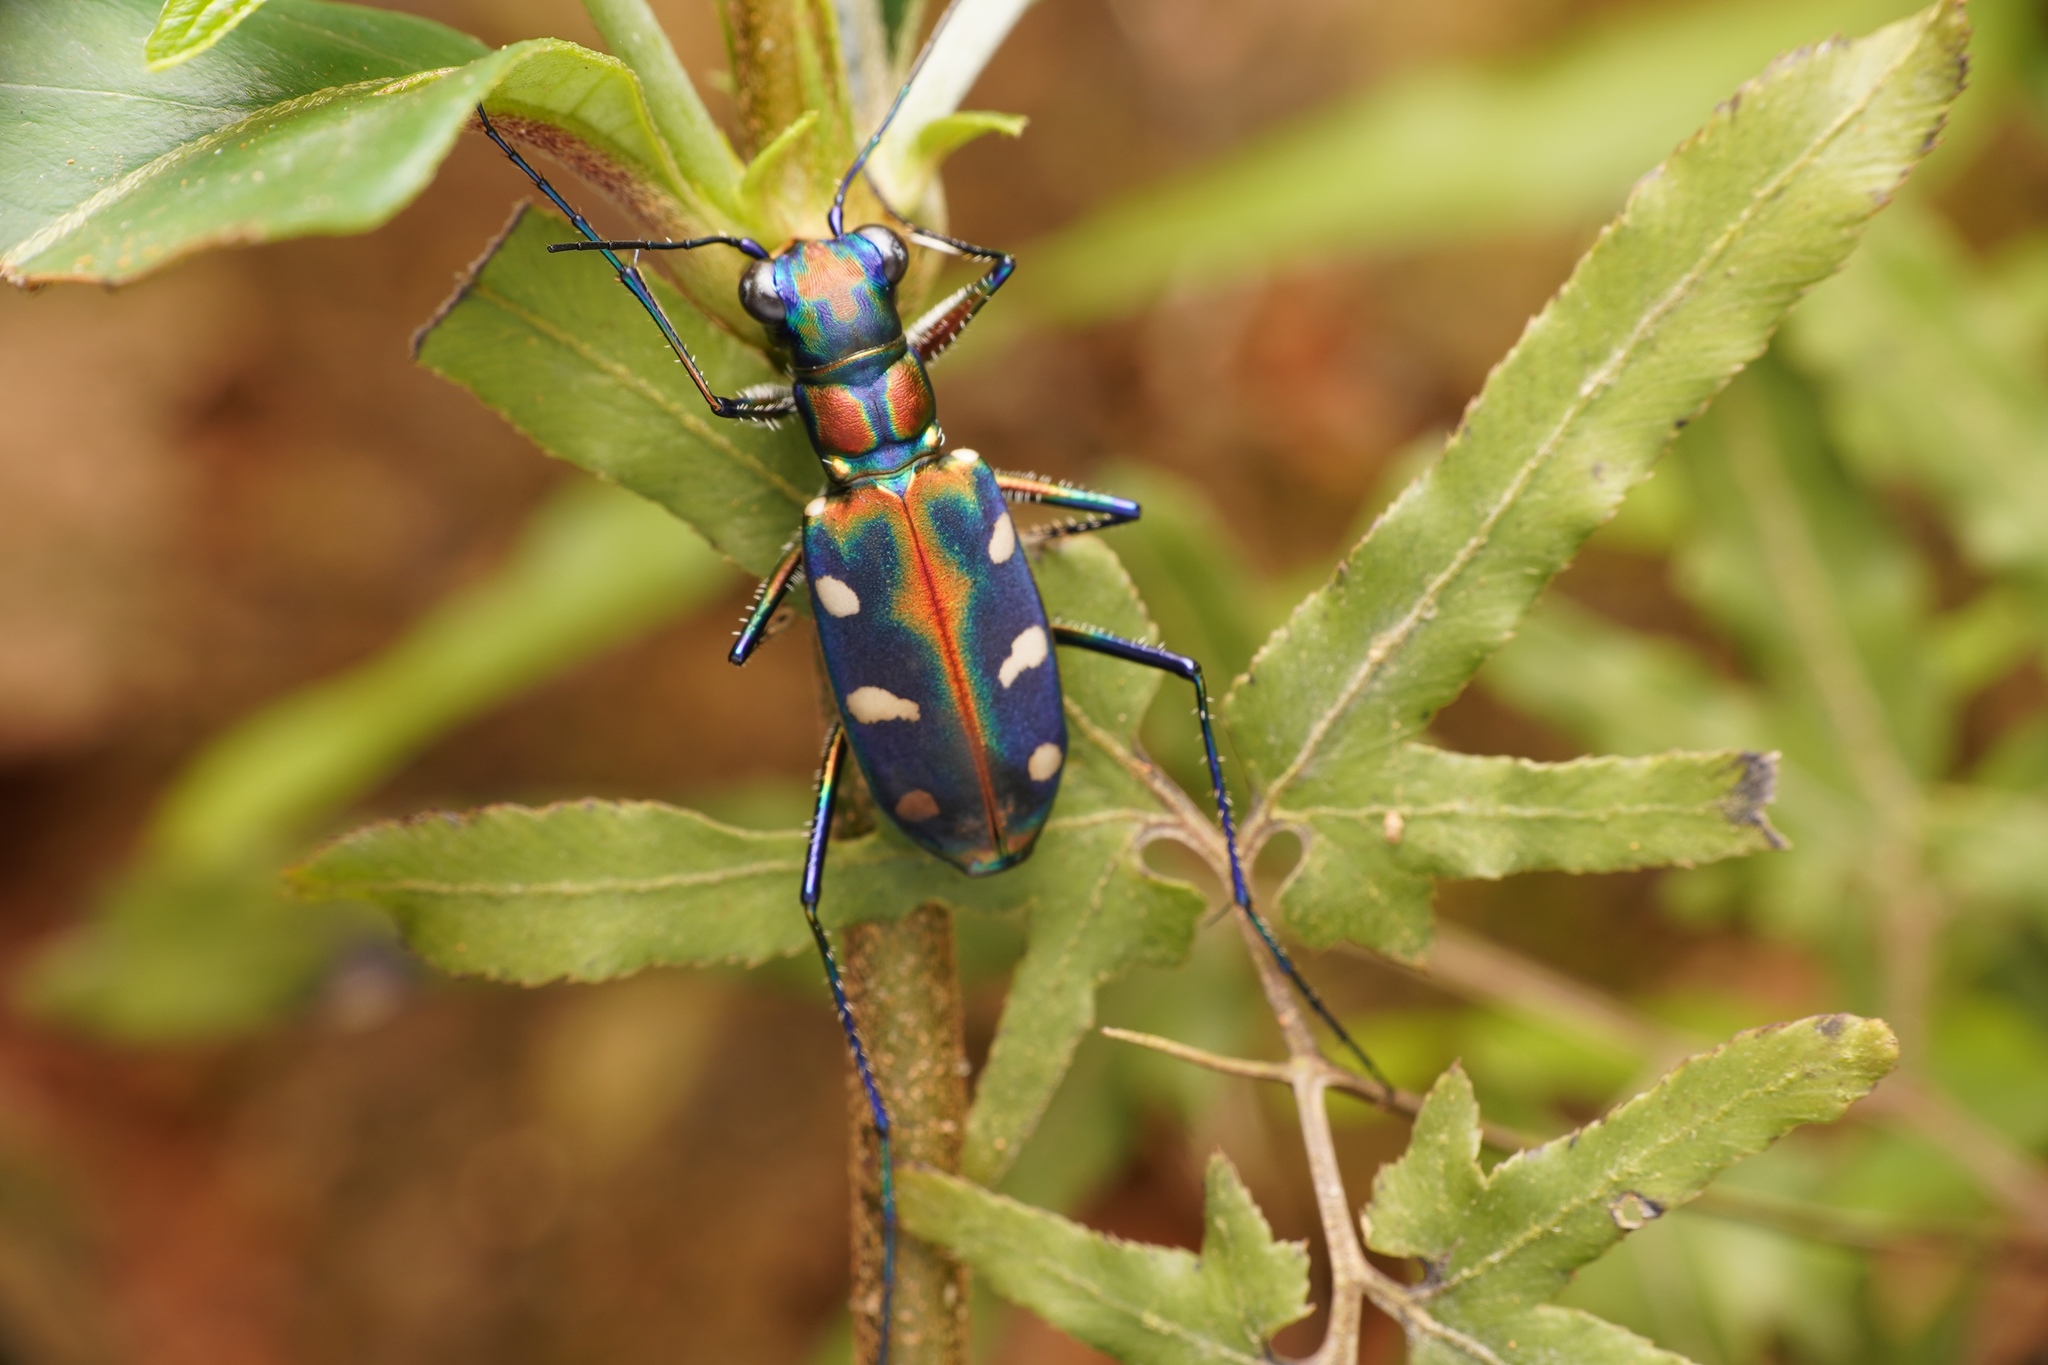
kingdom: Animalia
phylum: Arthropoda
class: Insecta
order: Coleoptera
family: Carabidae
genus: Cicindela
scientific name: Cicindela virgula
